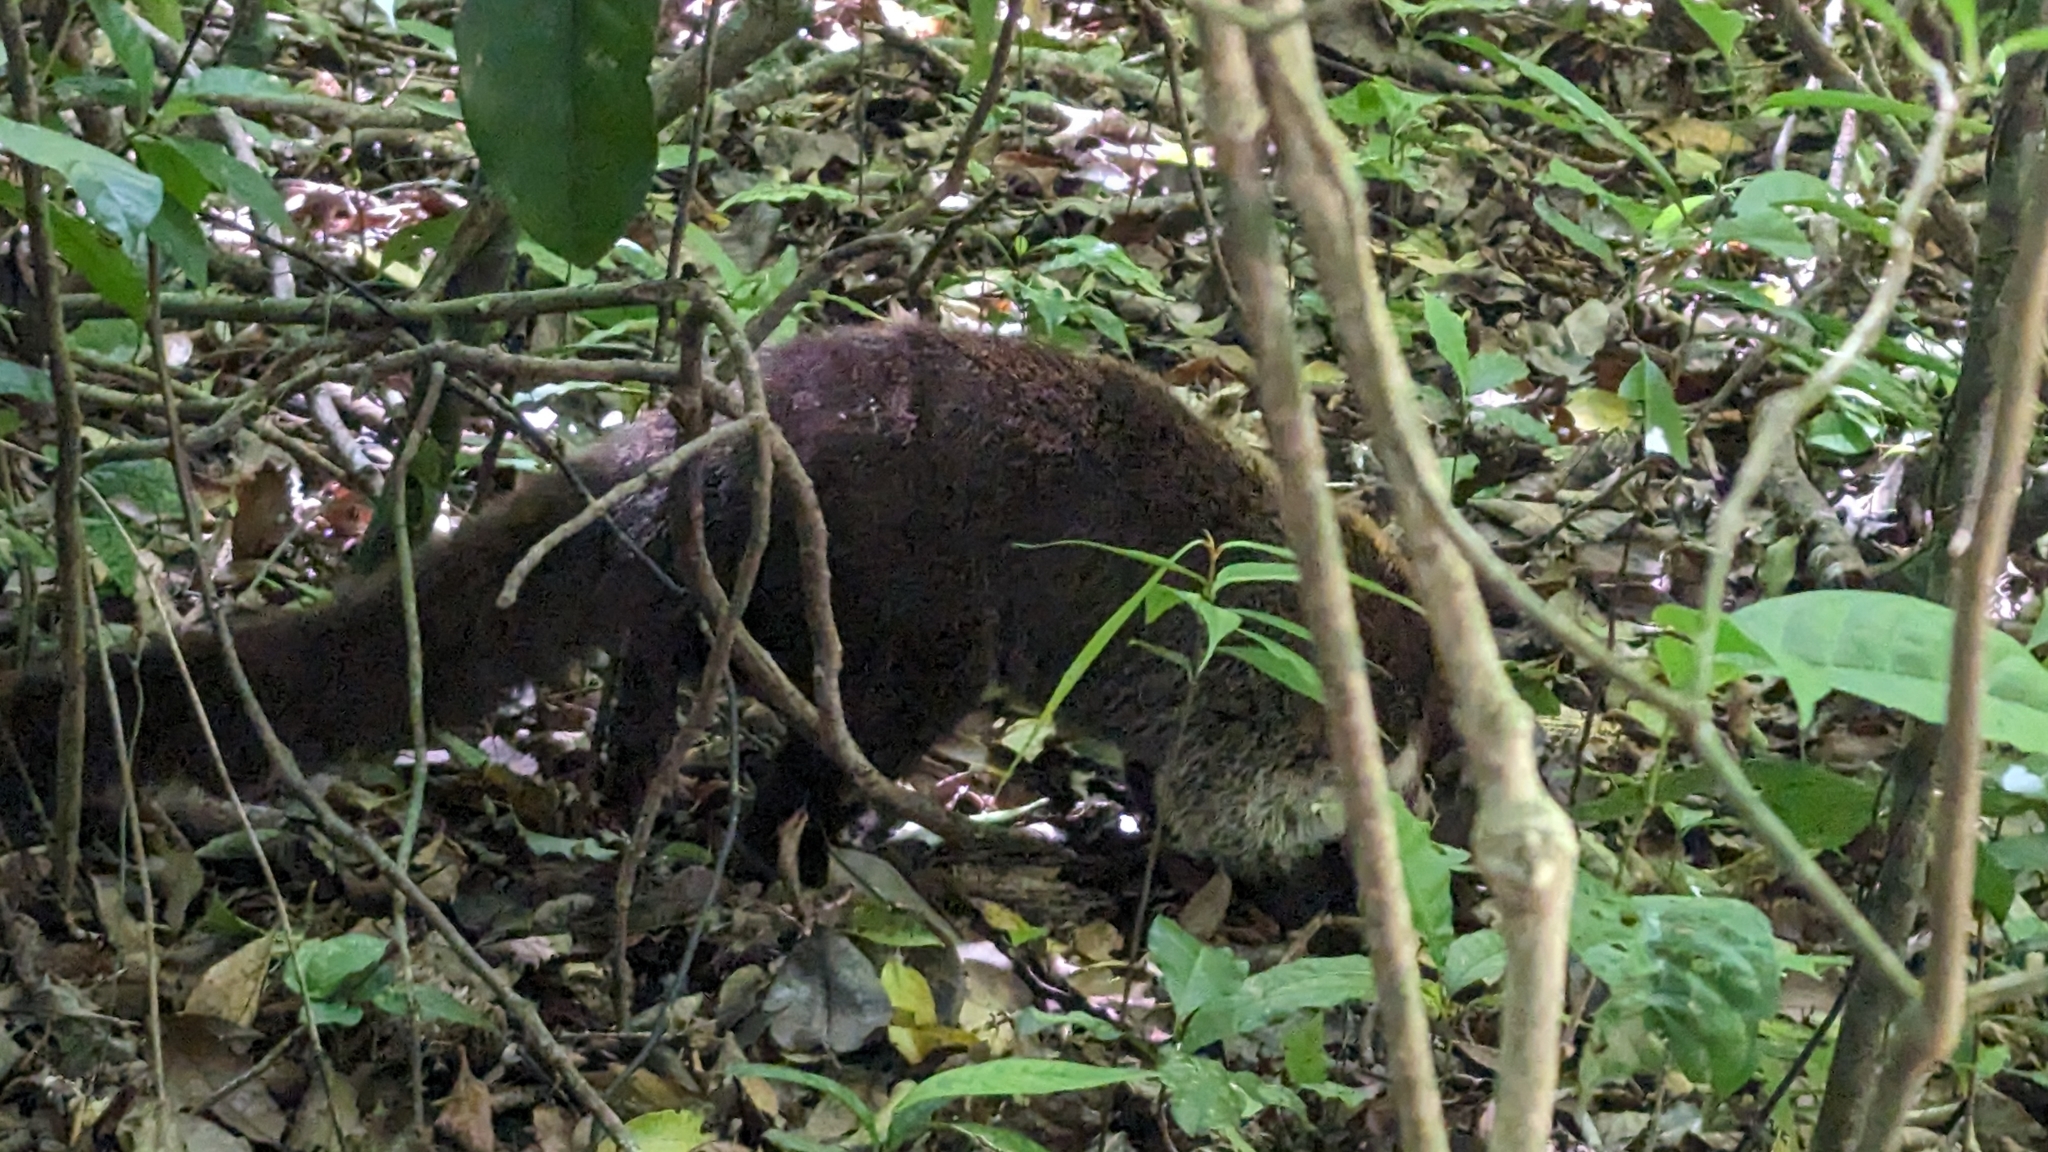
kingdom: Animalia
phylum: Chordata
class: Mammalia
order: Carnivora
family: Procyonidae
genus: Nasua
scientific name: Nasua narica
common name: White-nosed coati
